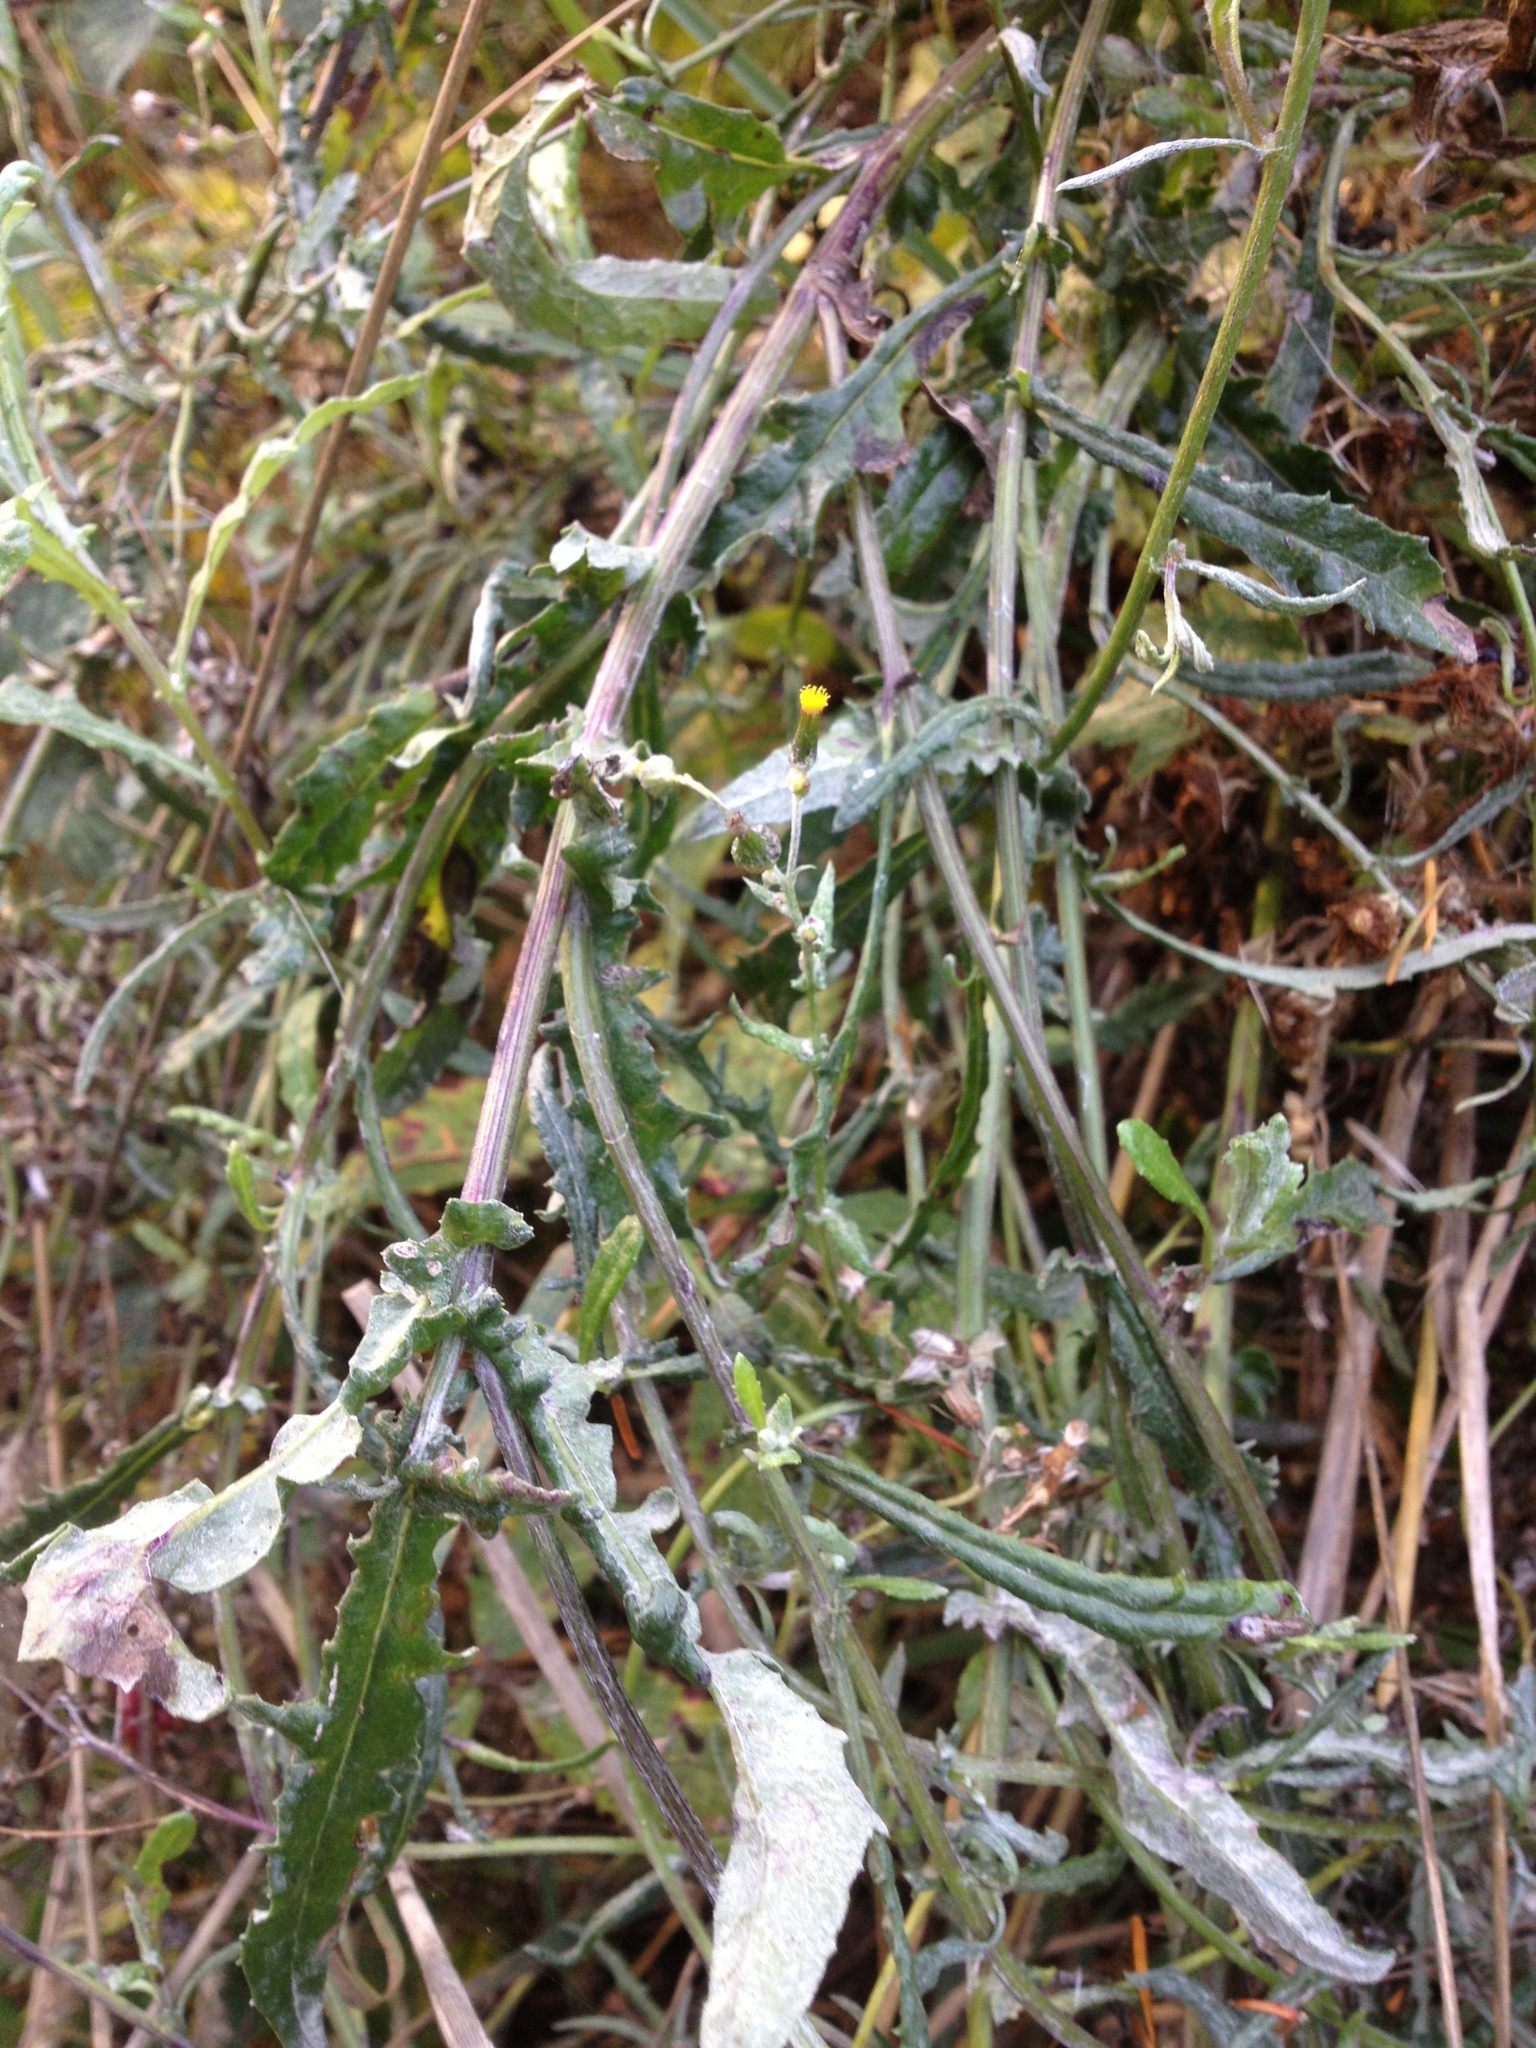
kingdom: Plantae
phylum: Tracheophyta
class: Magnoliopsida
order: Asterales
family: Asteraceae
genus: Senecio
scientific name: Senecio glomeratus
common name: Cutleaf burnweed
